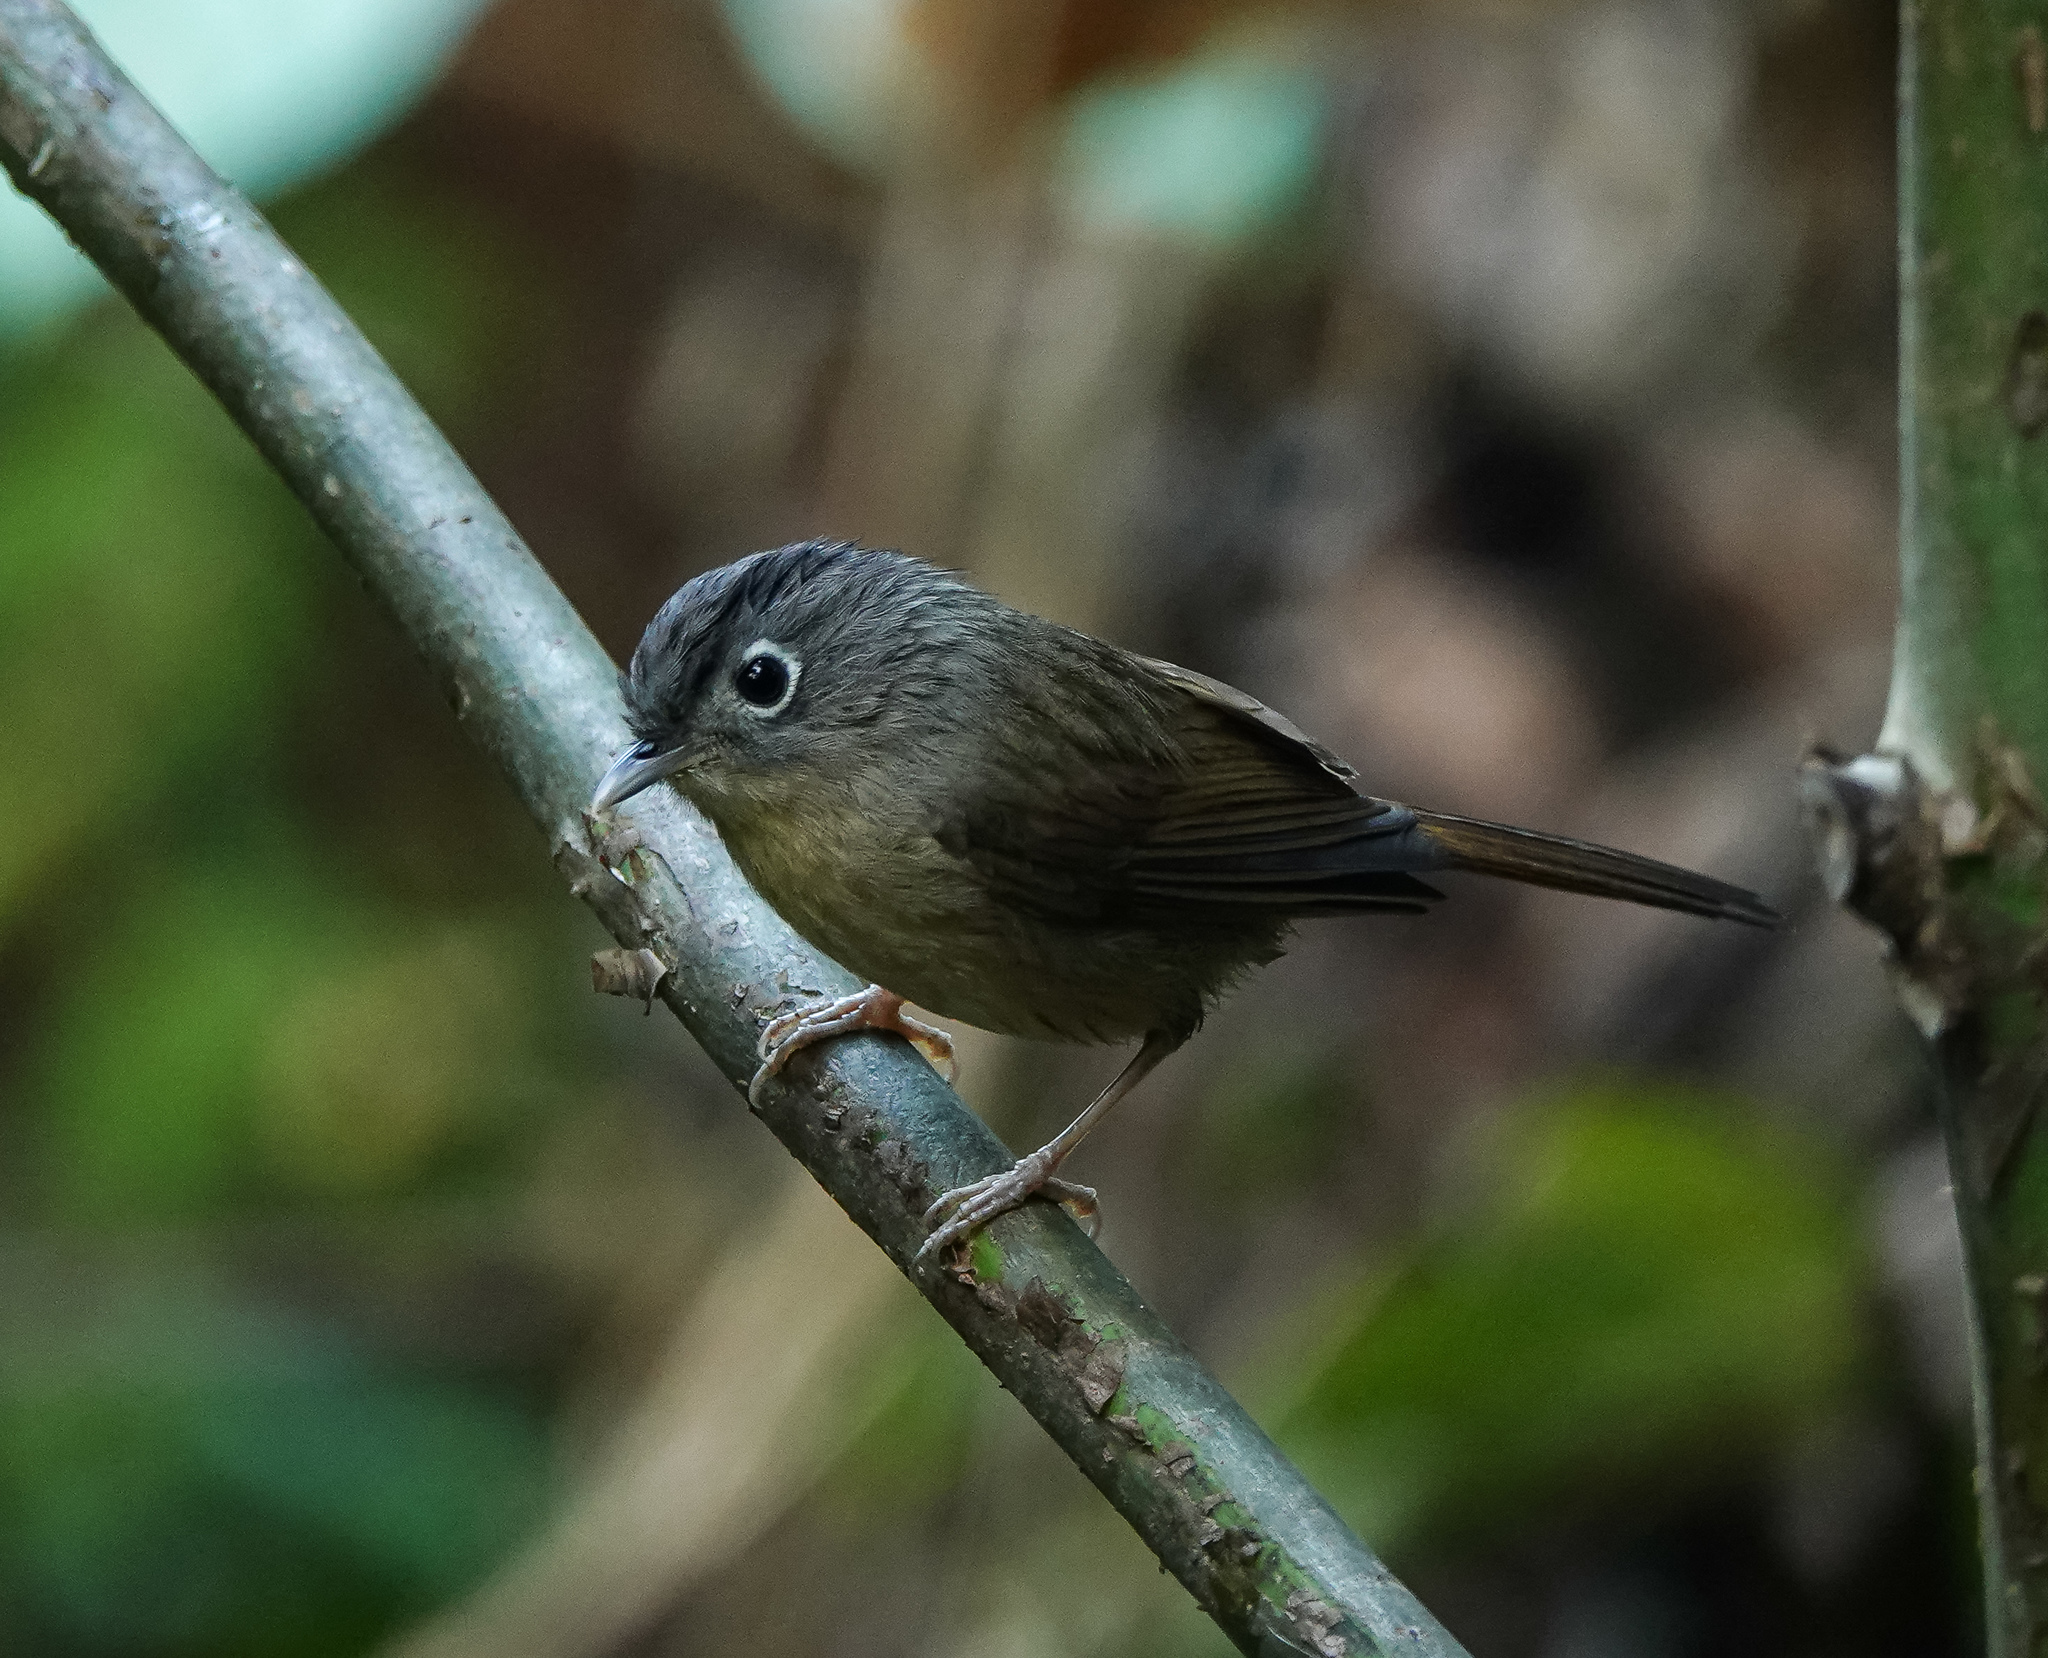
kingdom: Animalia
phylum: Chordata
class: Aves
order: Passeriformes
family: Pellorneidae
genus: Alcippe
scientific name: Alcippe nipalensis
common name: Nepal fulvetta
